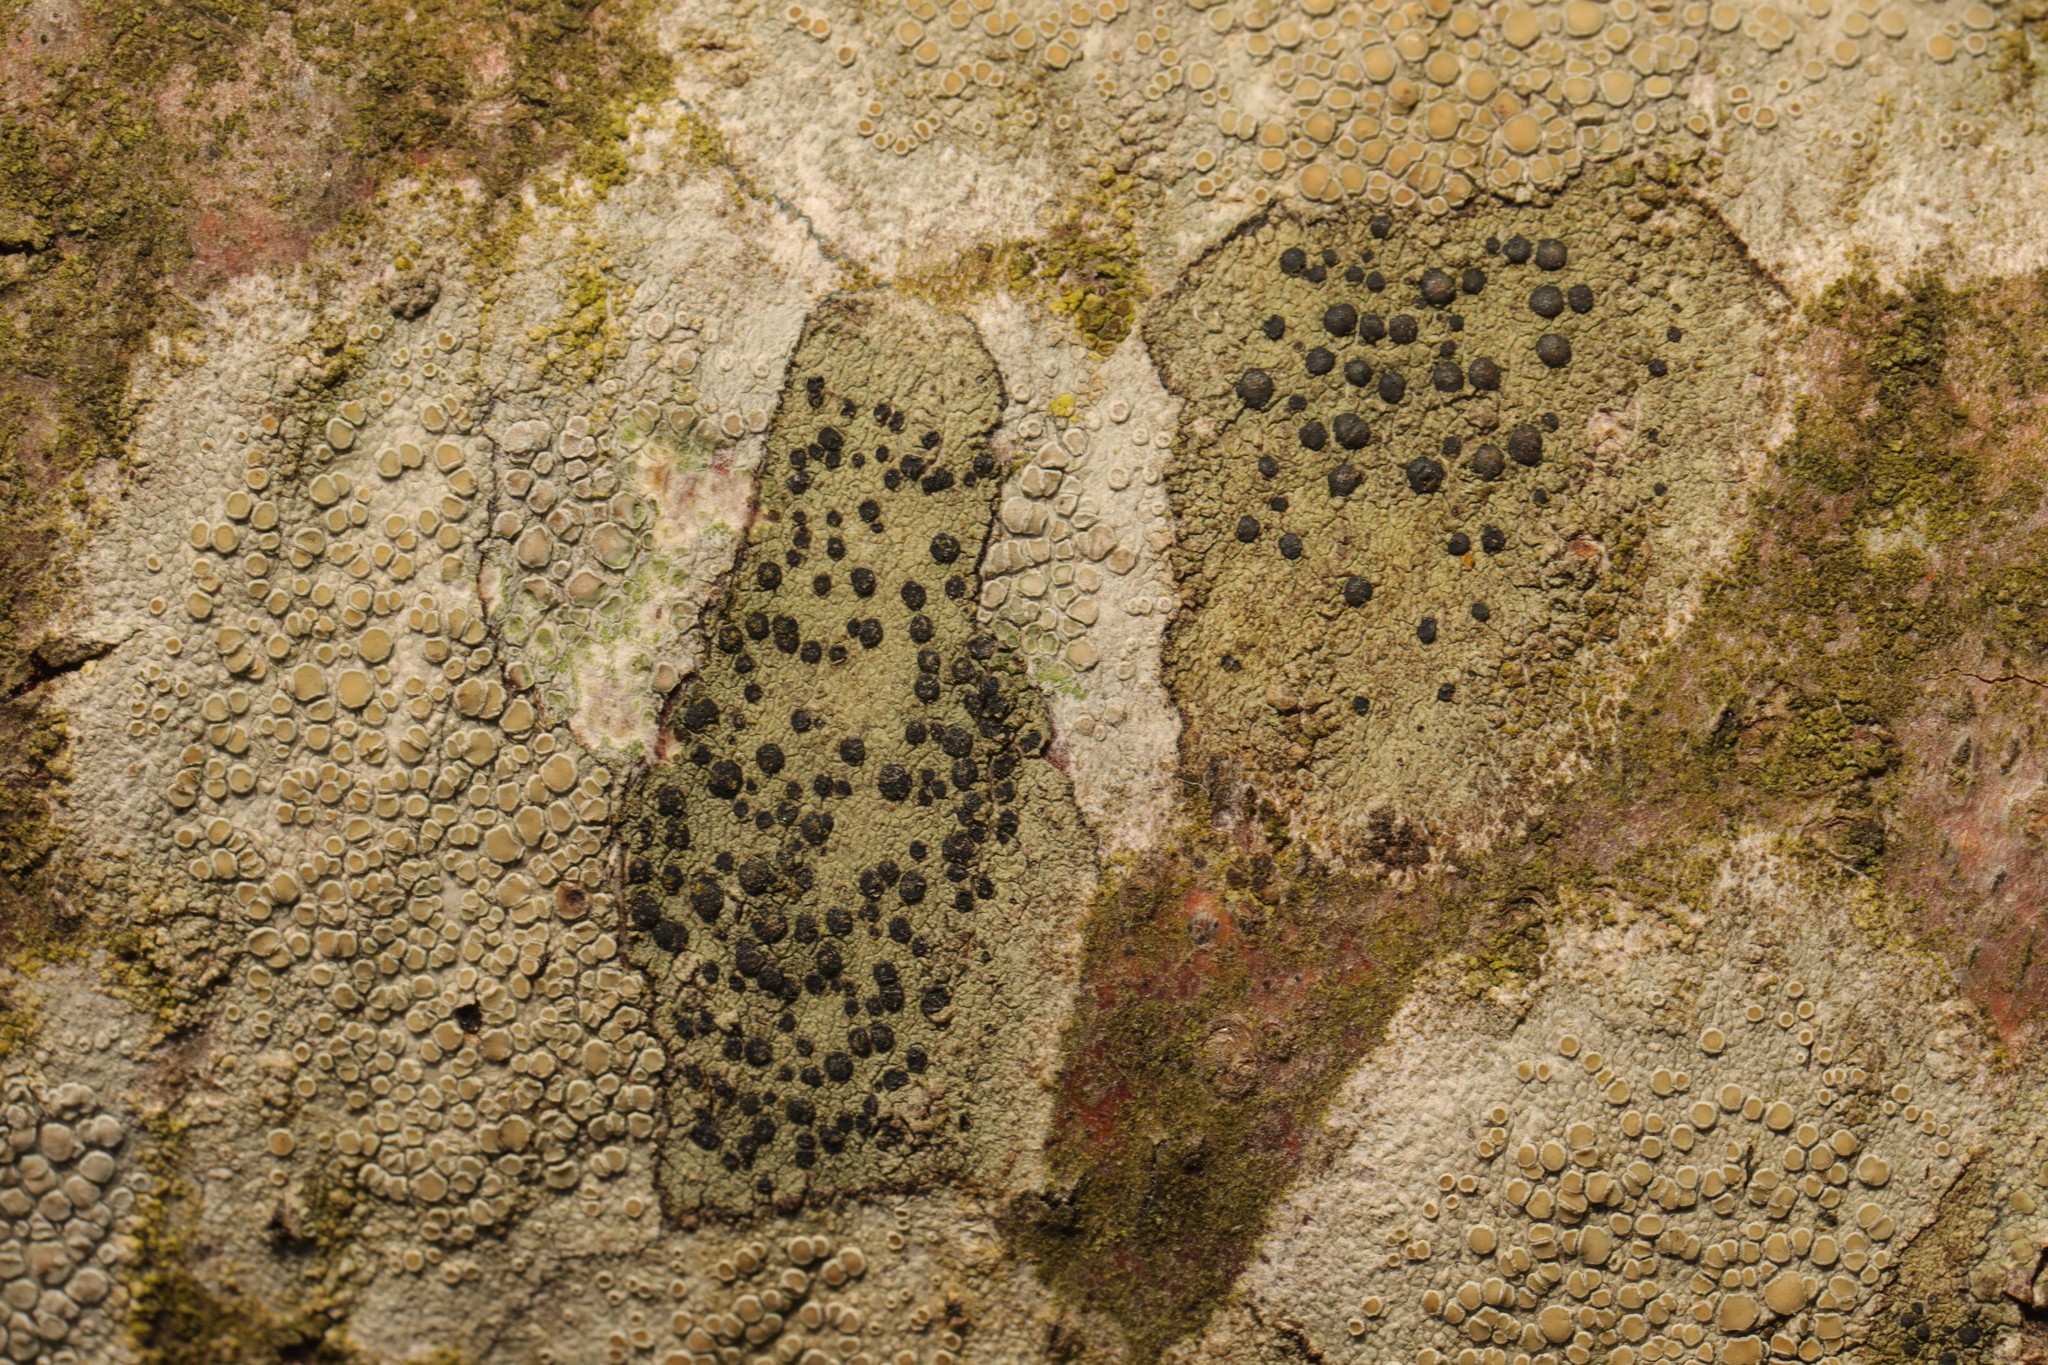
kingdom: Fungi
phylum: Ascomycota
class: Lecanoromycetes
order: Lecanorales
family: Lecanoraceae
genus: Lecidella
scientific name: Lecidella elaeochroma
